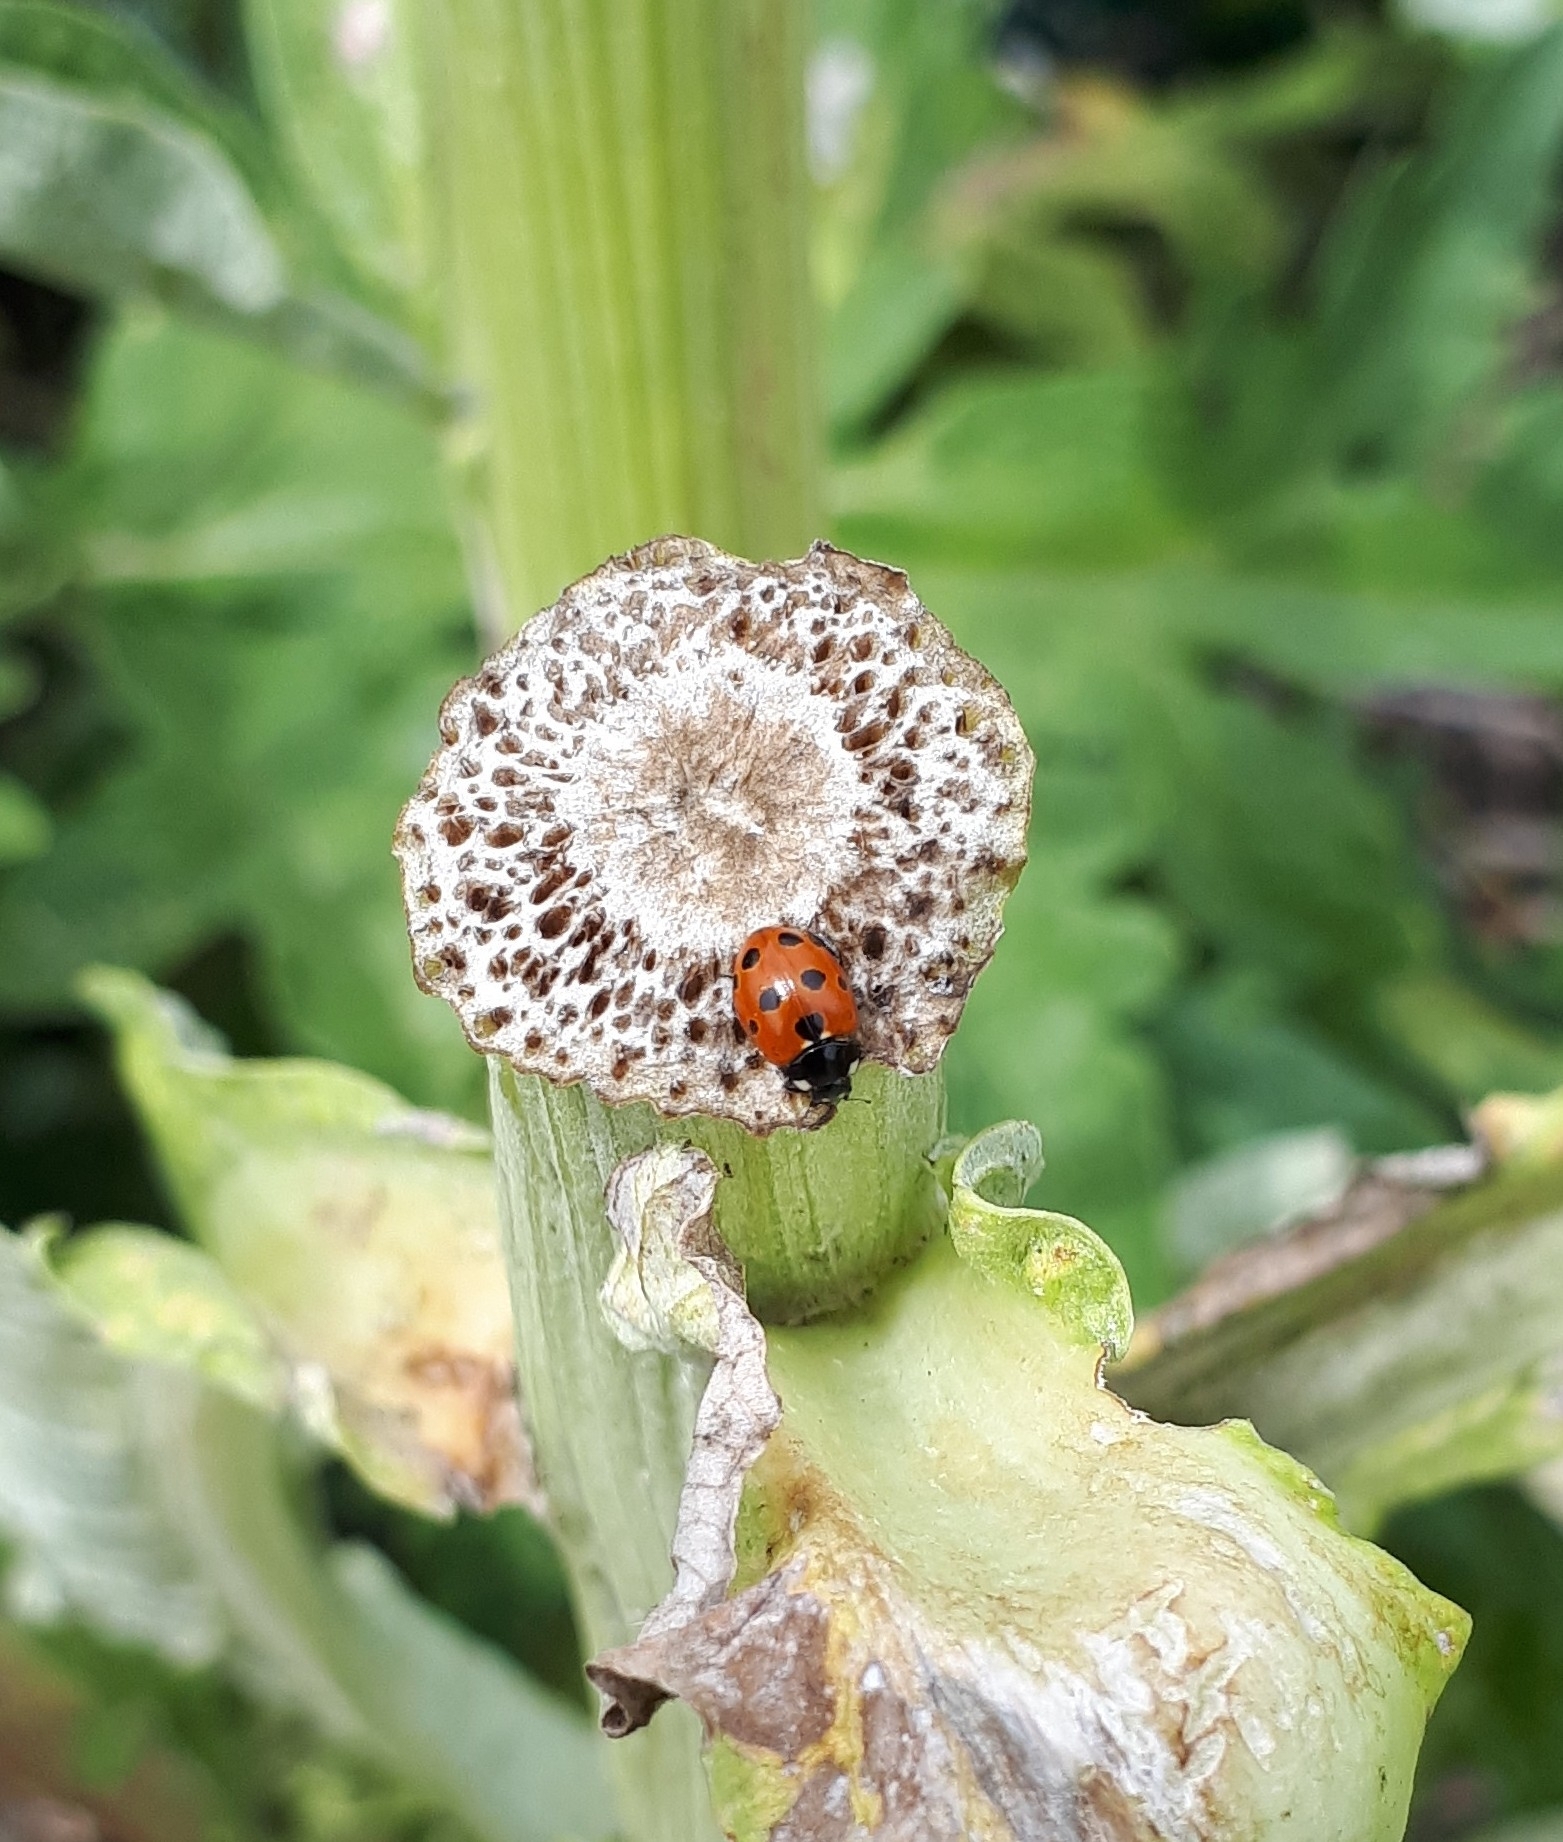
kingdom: Animalia
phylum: Arthropoda
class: Insecta
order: Coleoptera
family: Coccinellidae
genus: Coccinella
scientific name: Coccinella undecimpunctata
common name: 11-spot ladybird
